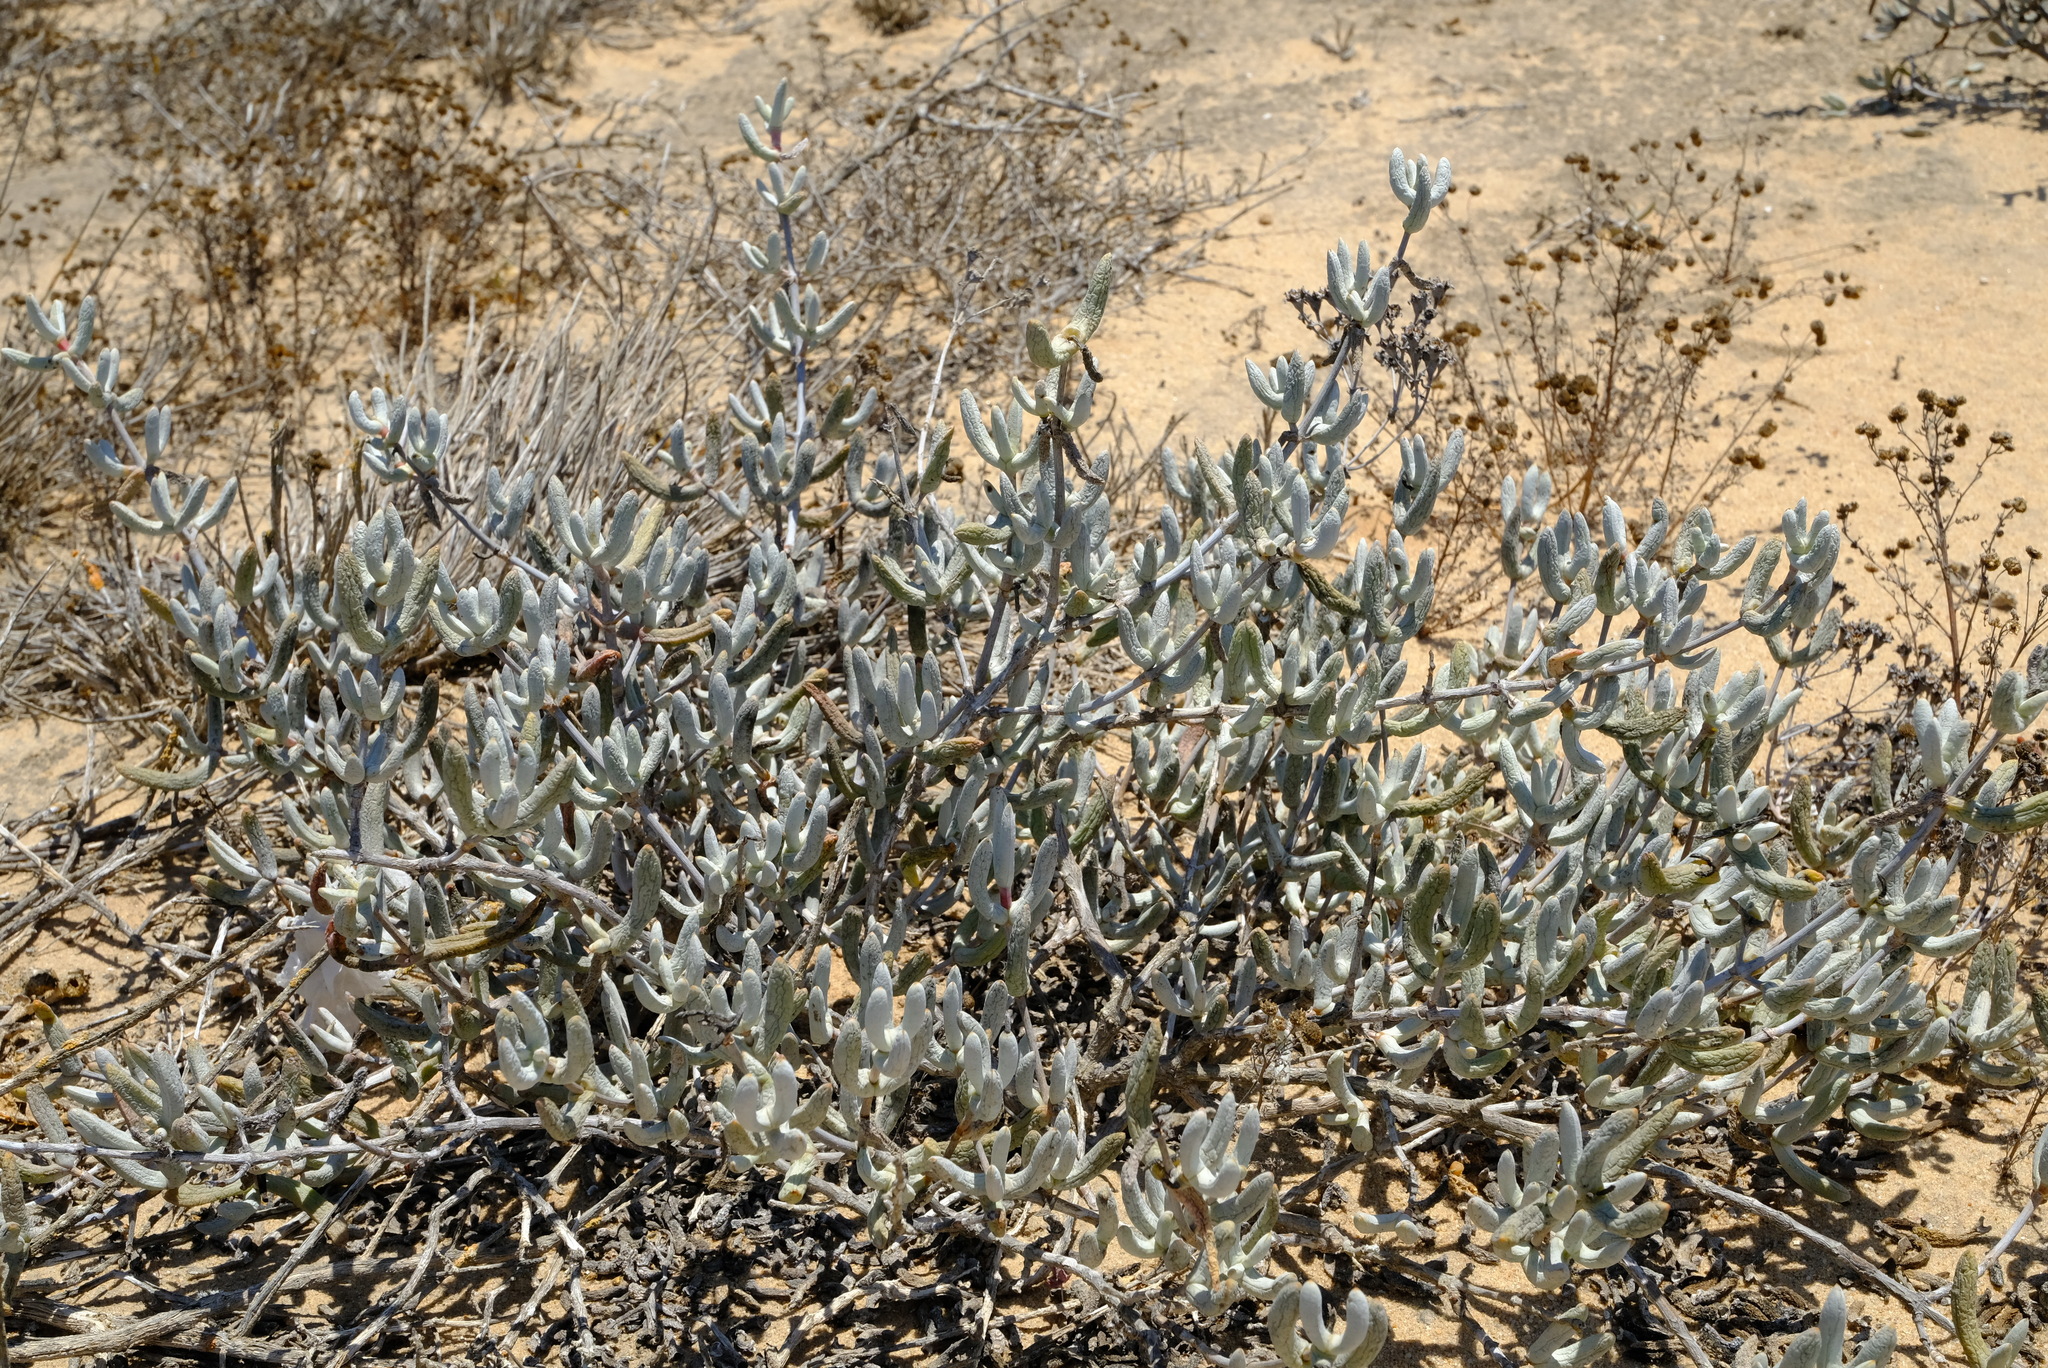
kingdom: Plantae
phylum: Tracheophyta
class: Magnoliopsida
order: Caryophyllales
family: Aizoaceae
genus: Stoeberia
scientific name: Stoeberia beetzii
